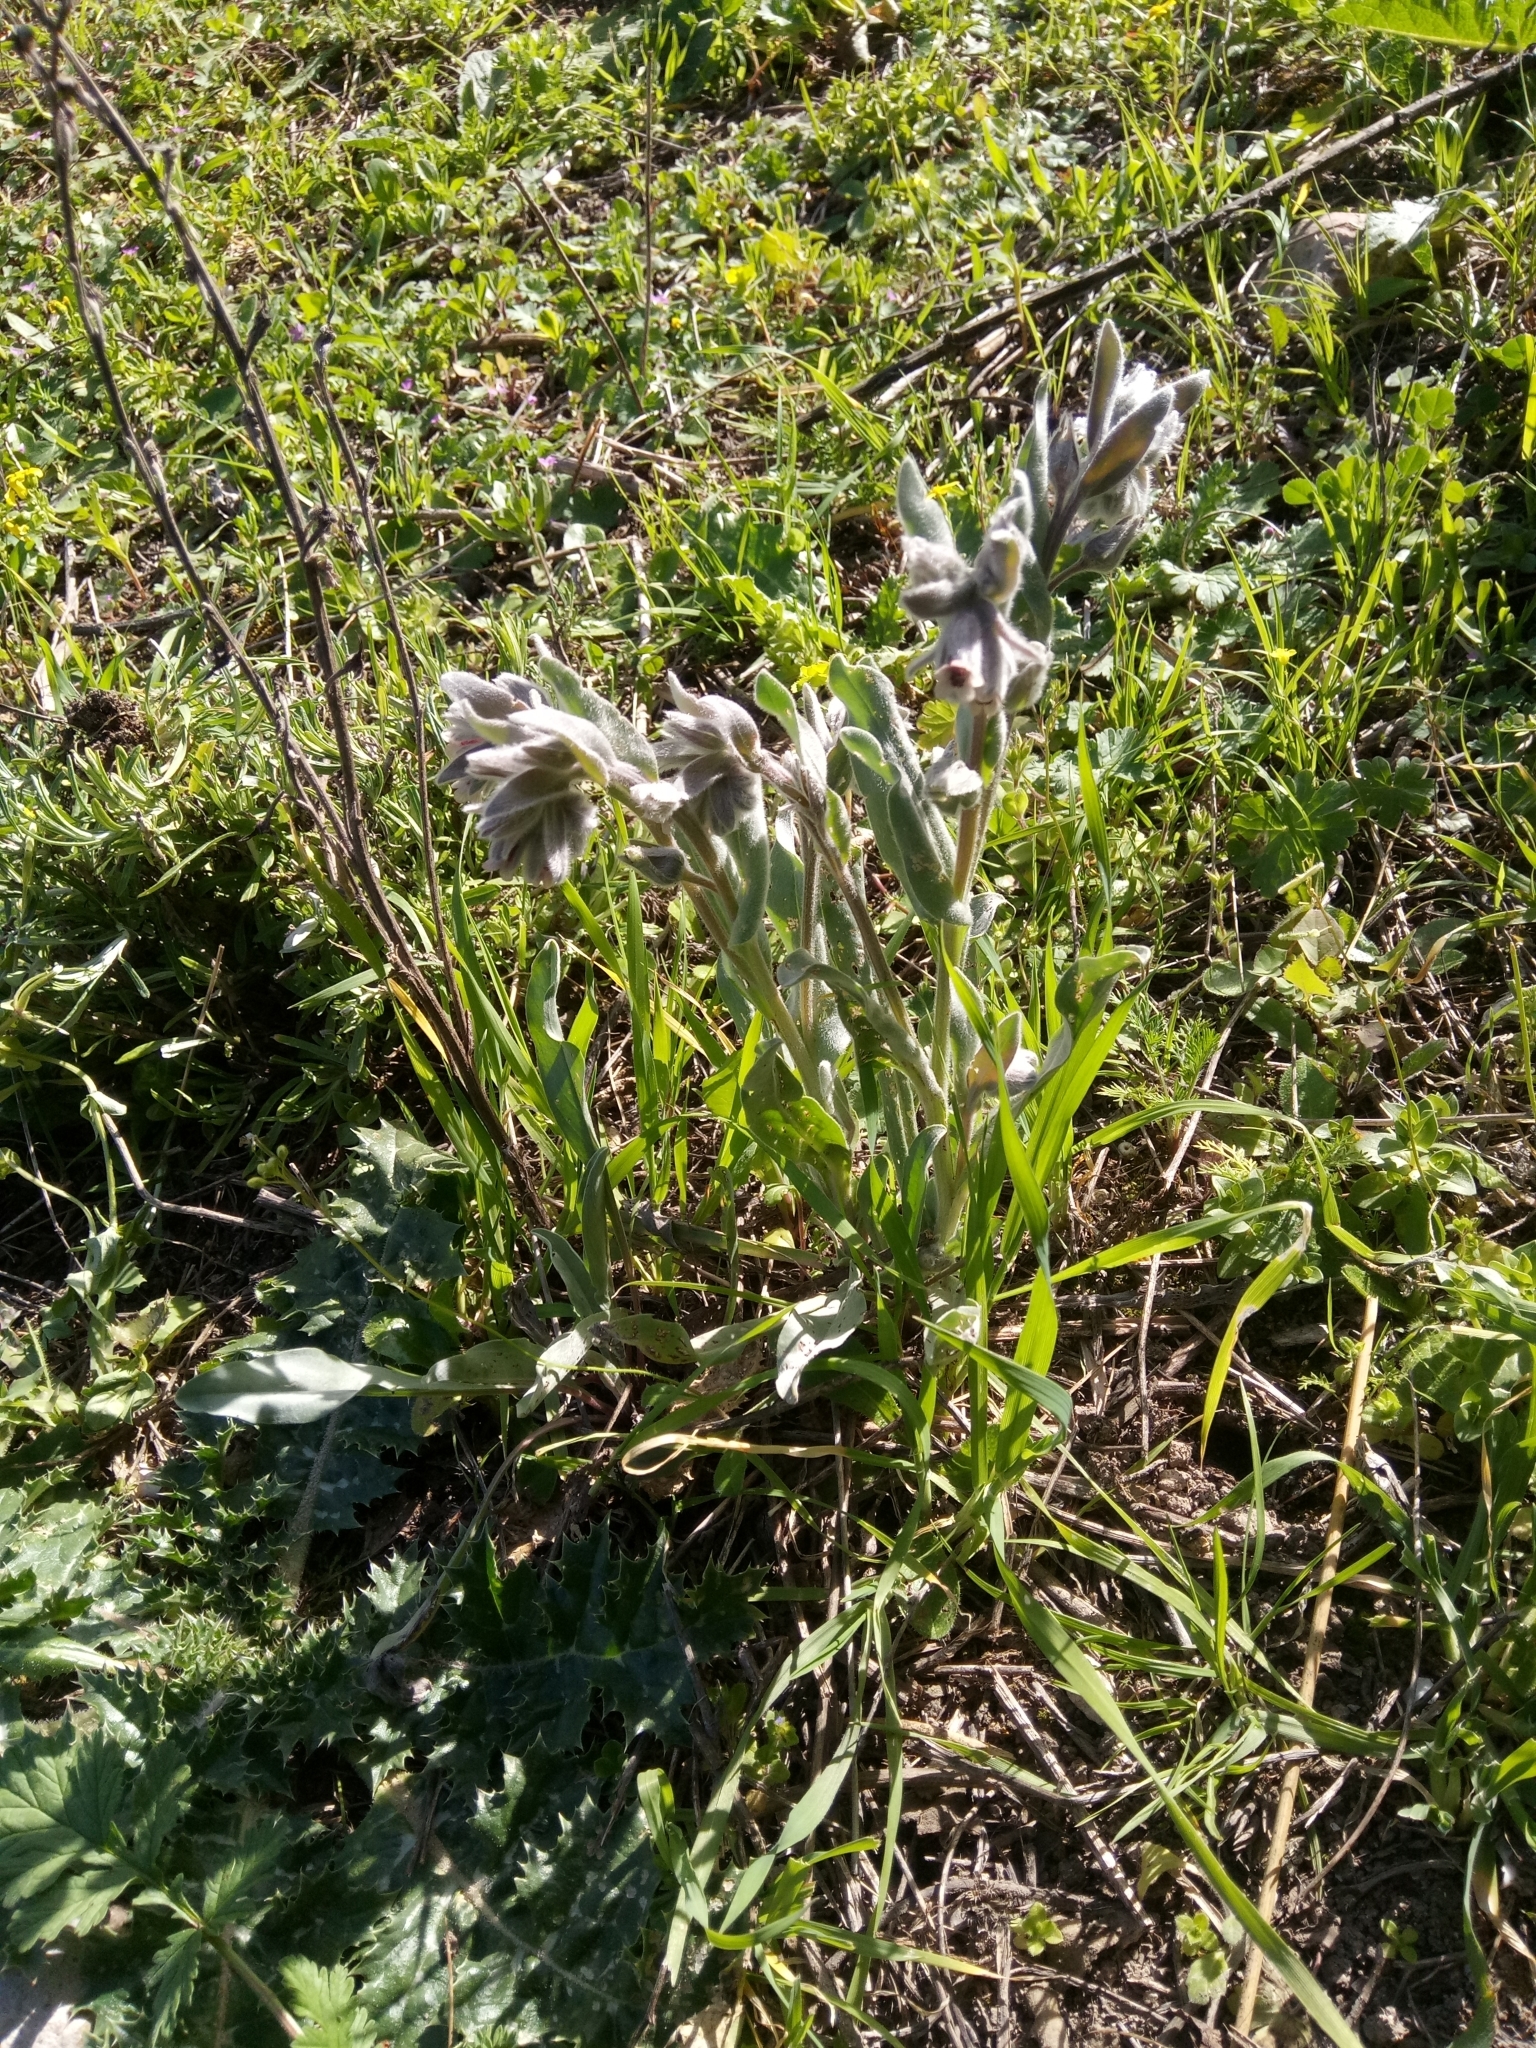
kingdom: Plantae
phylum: Tracheophyta
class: Magnoliopsida
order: Boraginales
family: Boraginaceae
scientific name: Boraginaceae
